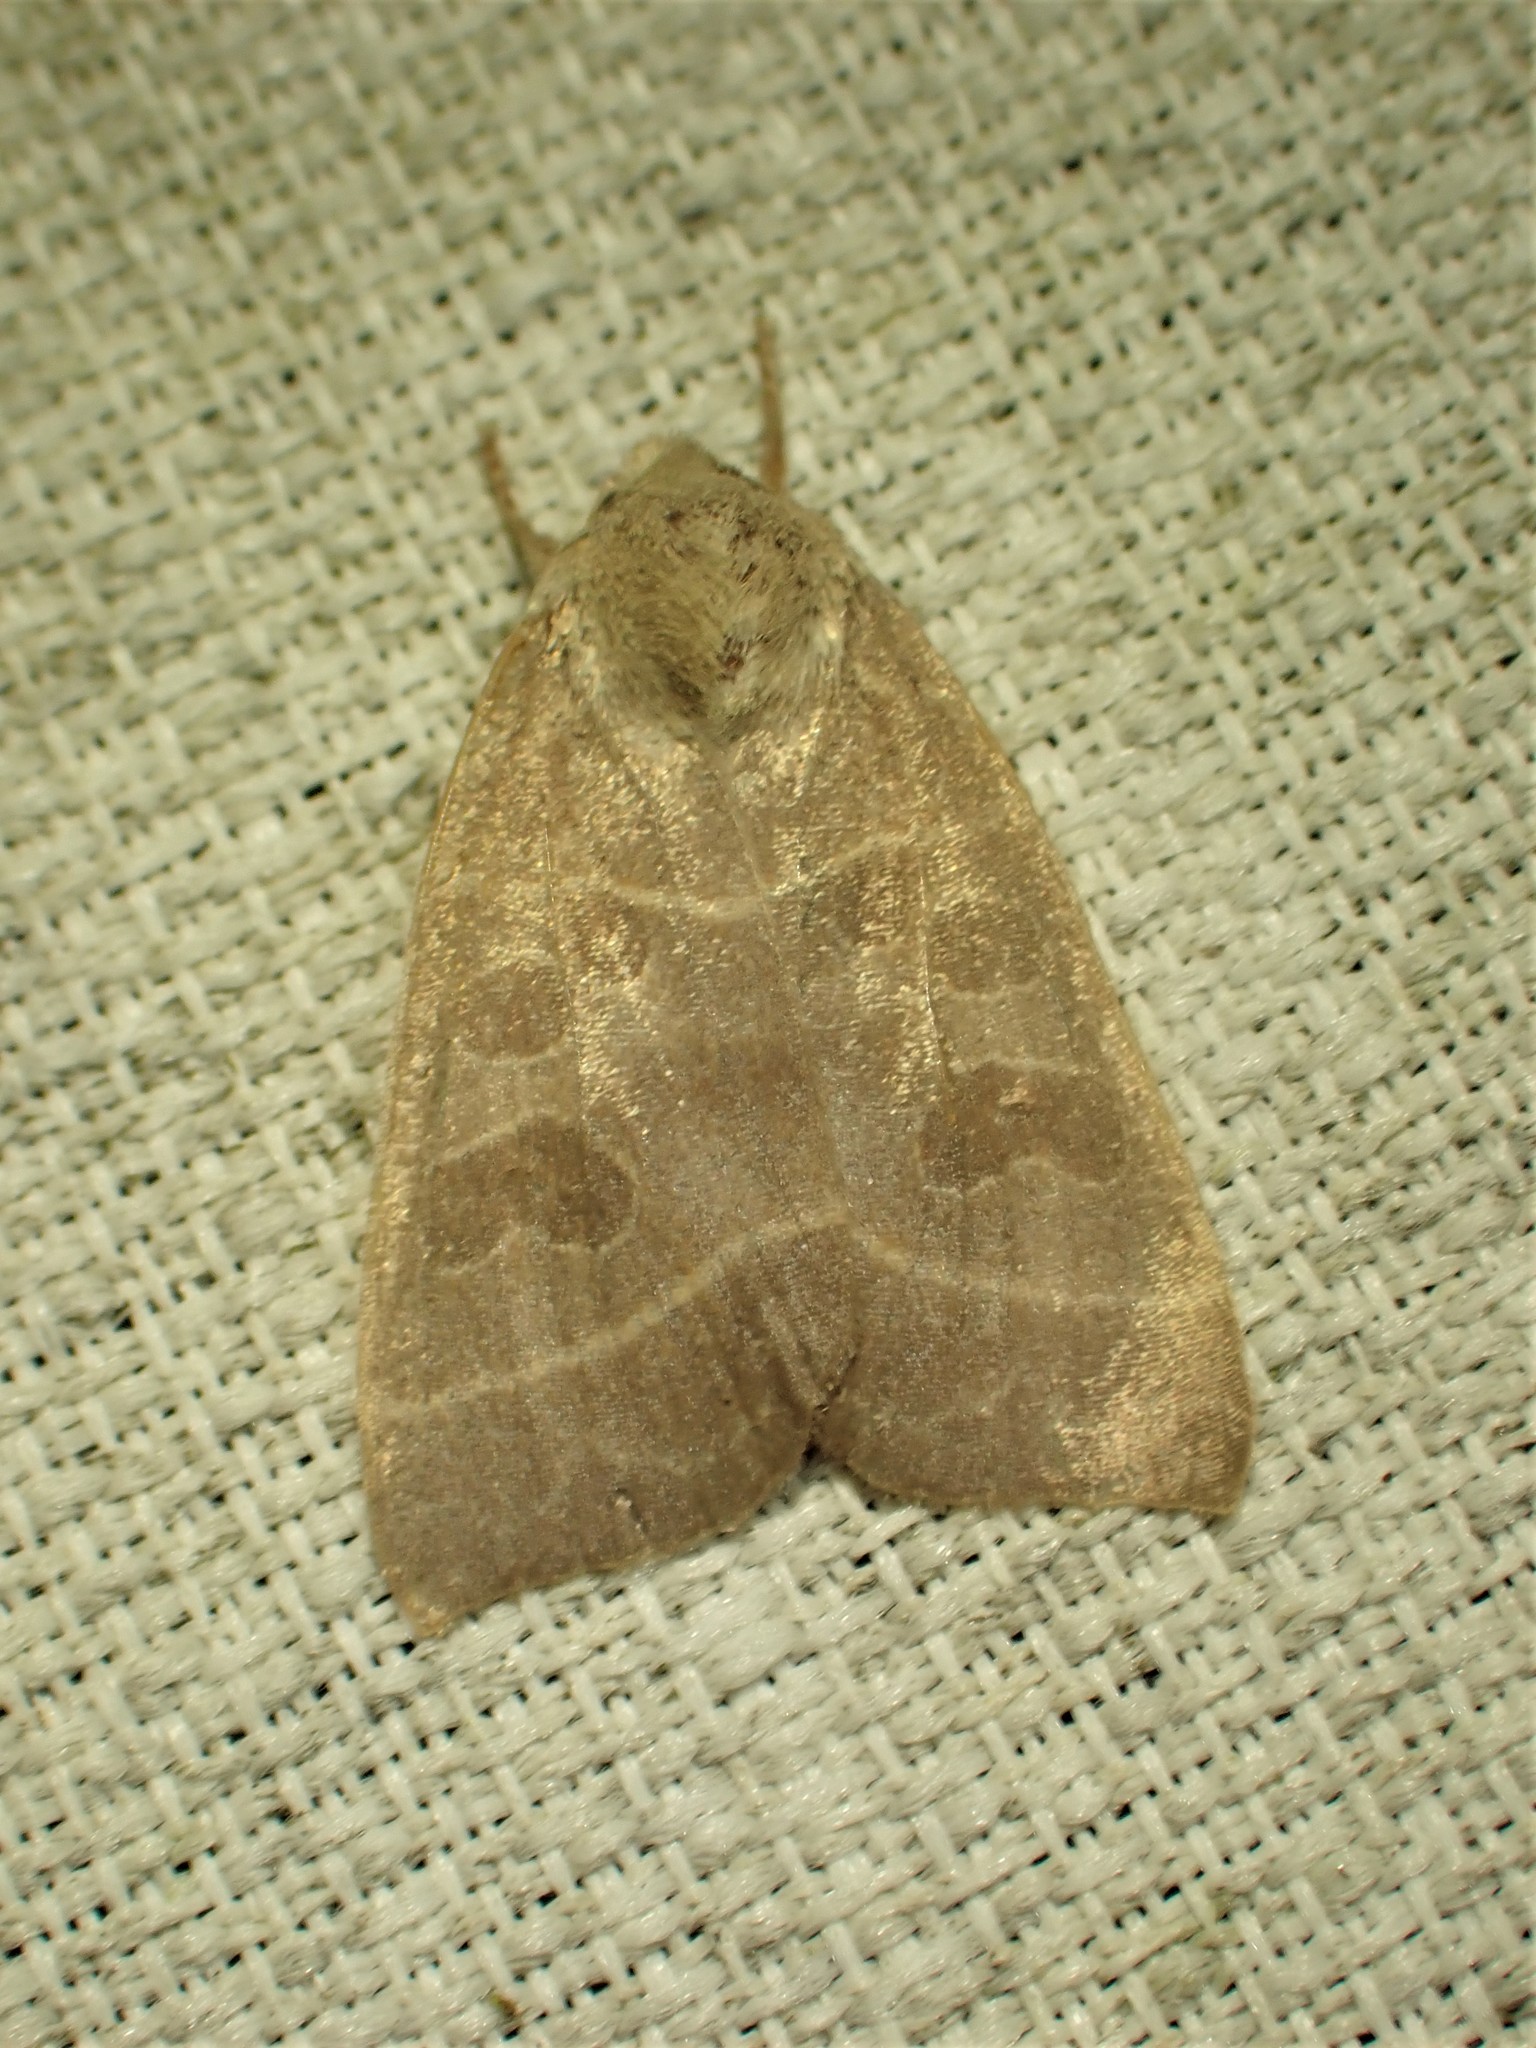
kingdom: Animalia
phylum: Arthropoda
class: Insecta
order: Lepidoptera
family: Noctuidae
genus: Ipimorpha
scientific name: Ipimorpha pleonectusa
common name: Even-lined sallow
